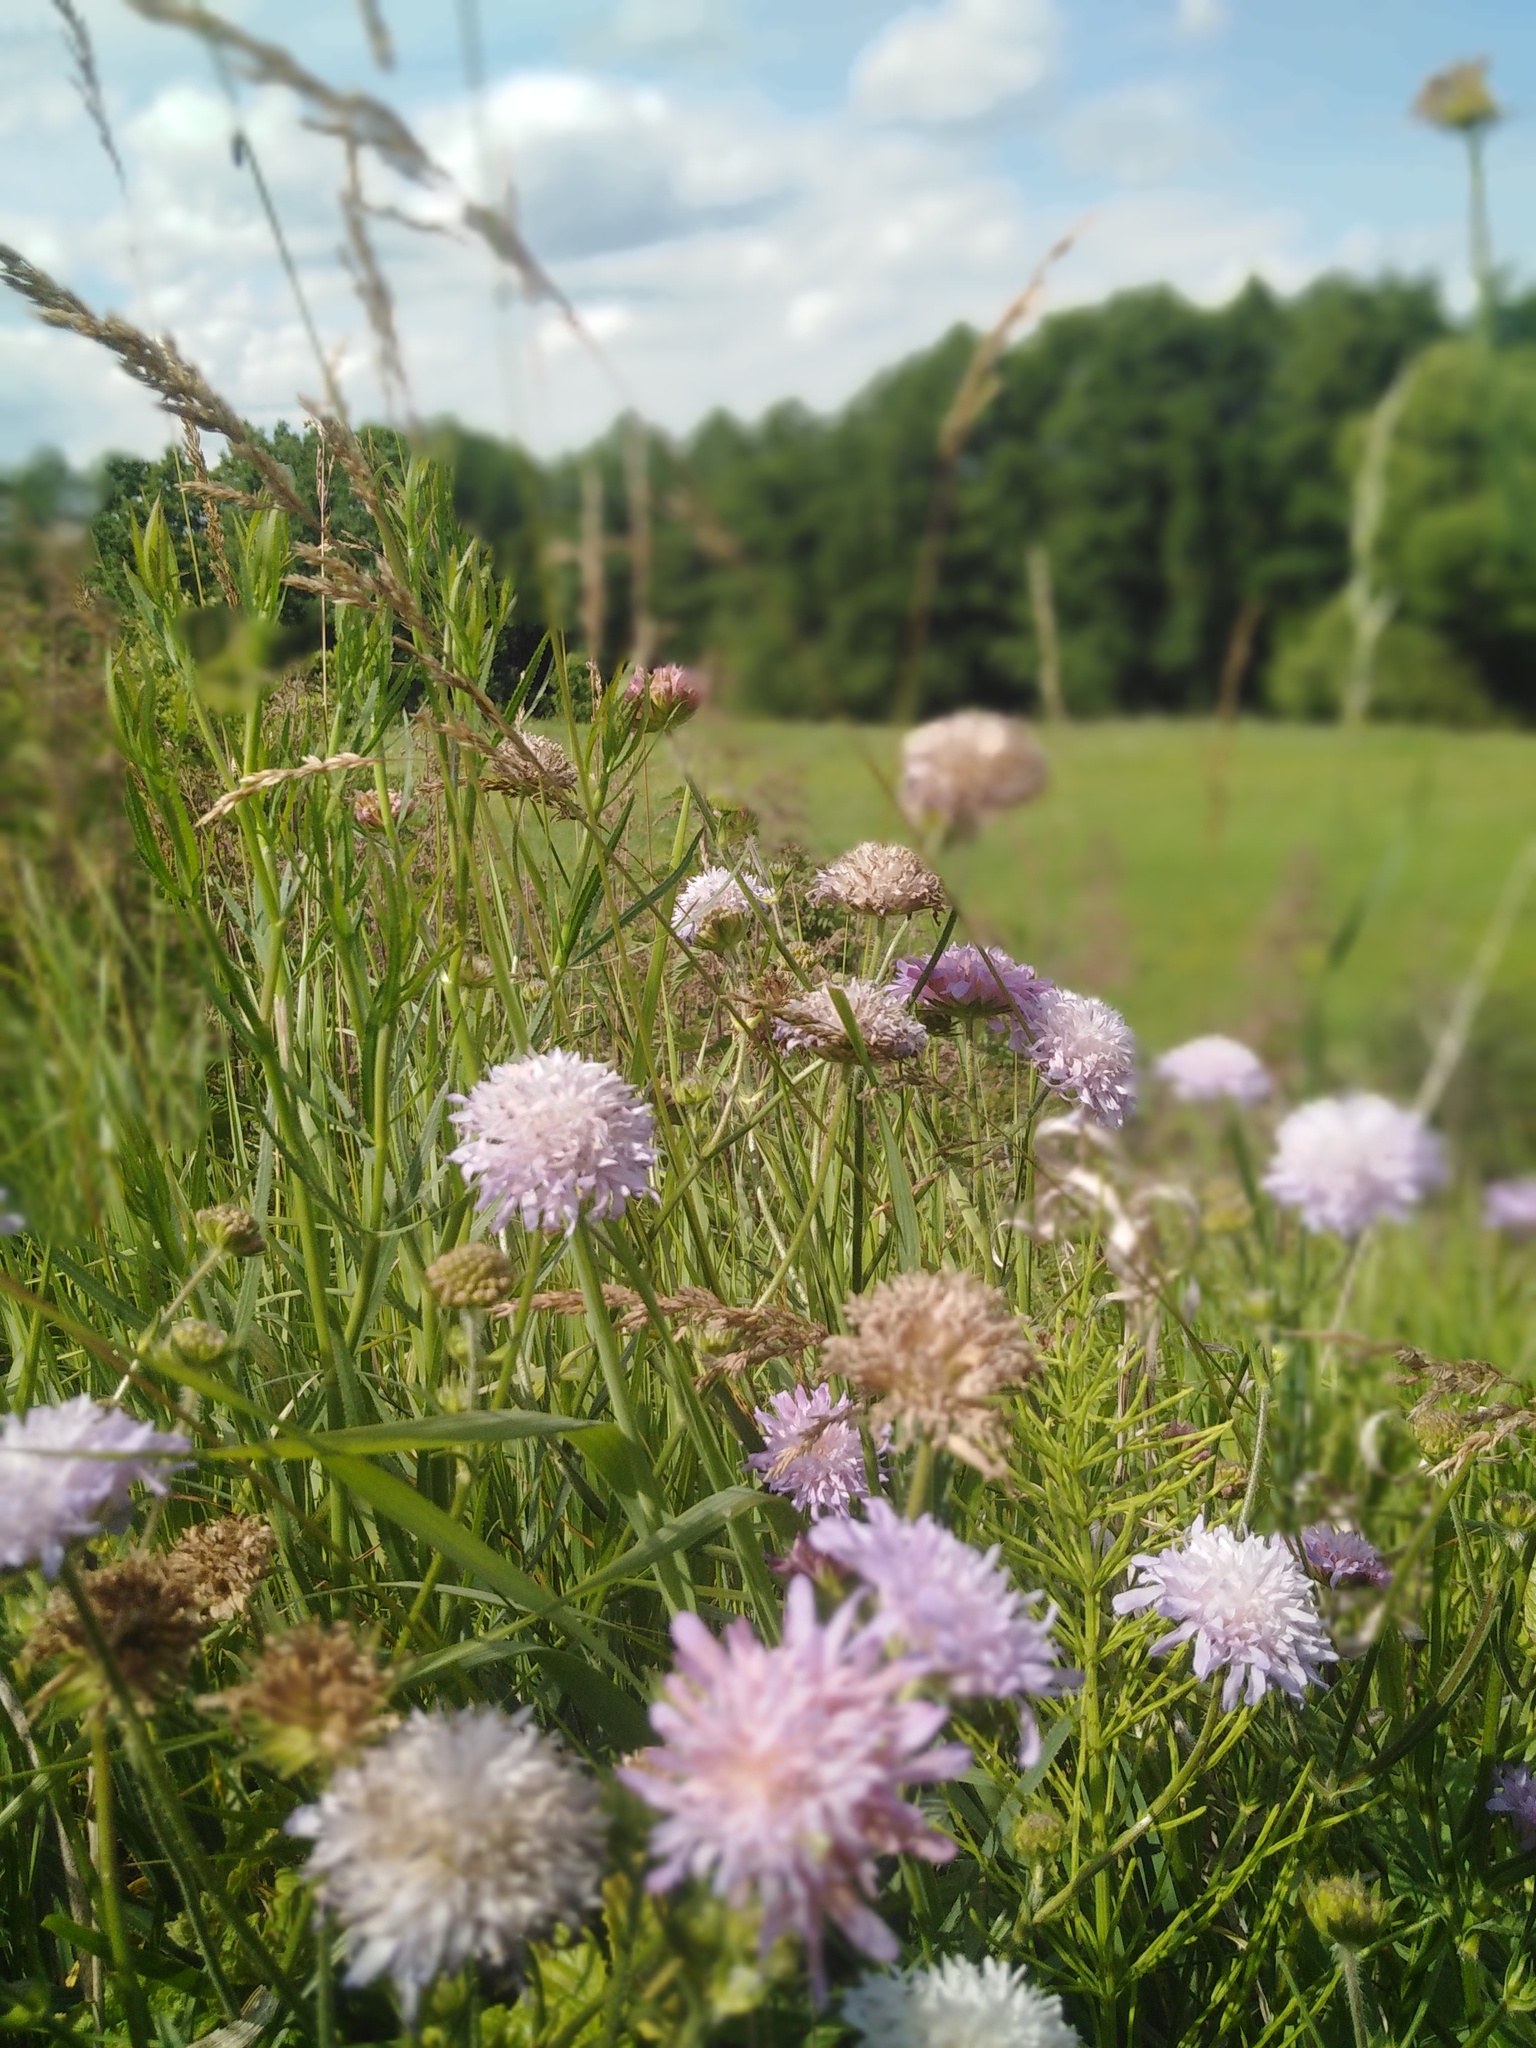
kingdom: Plantae
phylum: Tracheophyta
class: Magnoliopsida
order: Dipsacales
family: Caprifoliaceae
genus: Knautia
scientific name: Knautia arvensis
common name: Field scabiosa
